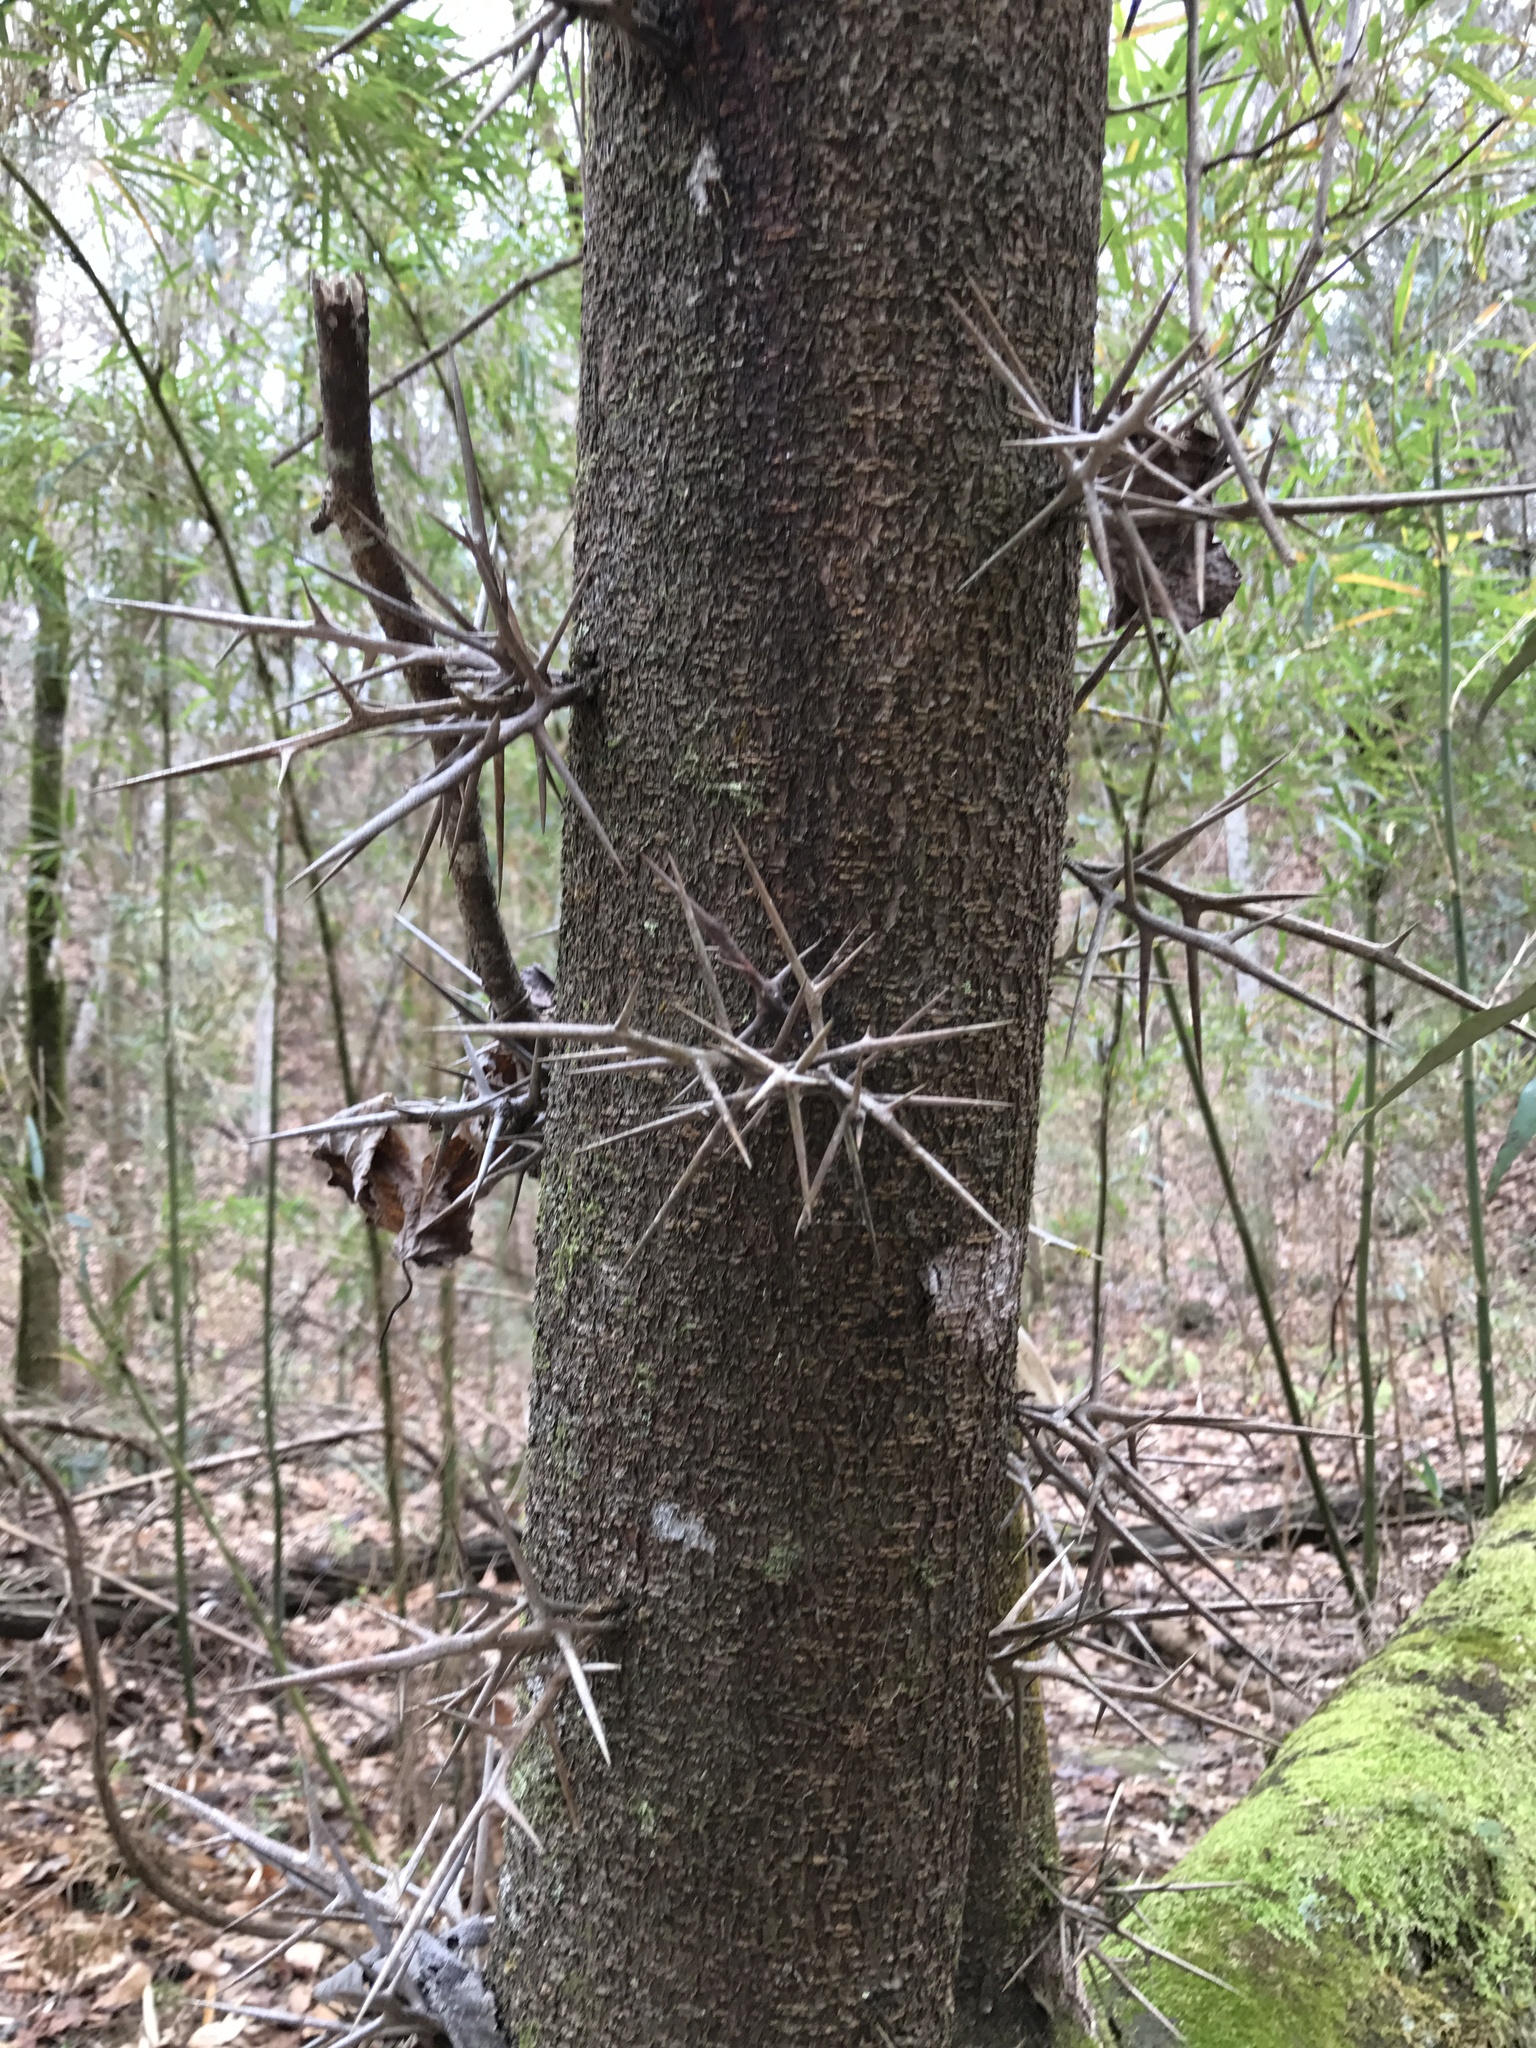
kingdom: Plantae
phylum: Tracheophyta
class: Magnoliopsida
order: Fabales
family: Fabaceae
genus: Gleditsia
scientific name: Gleditsia triacanthos
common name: Common honeylocust
